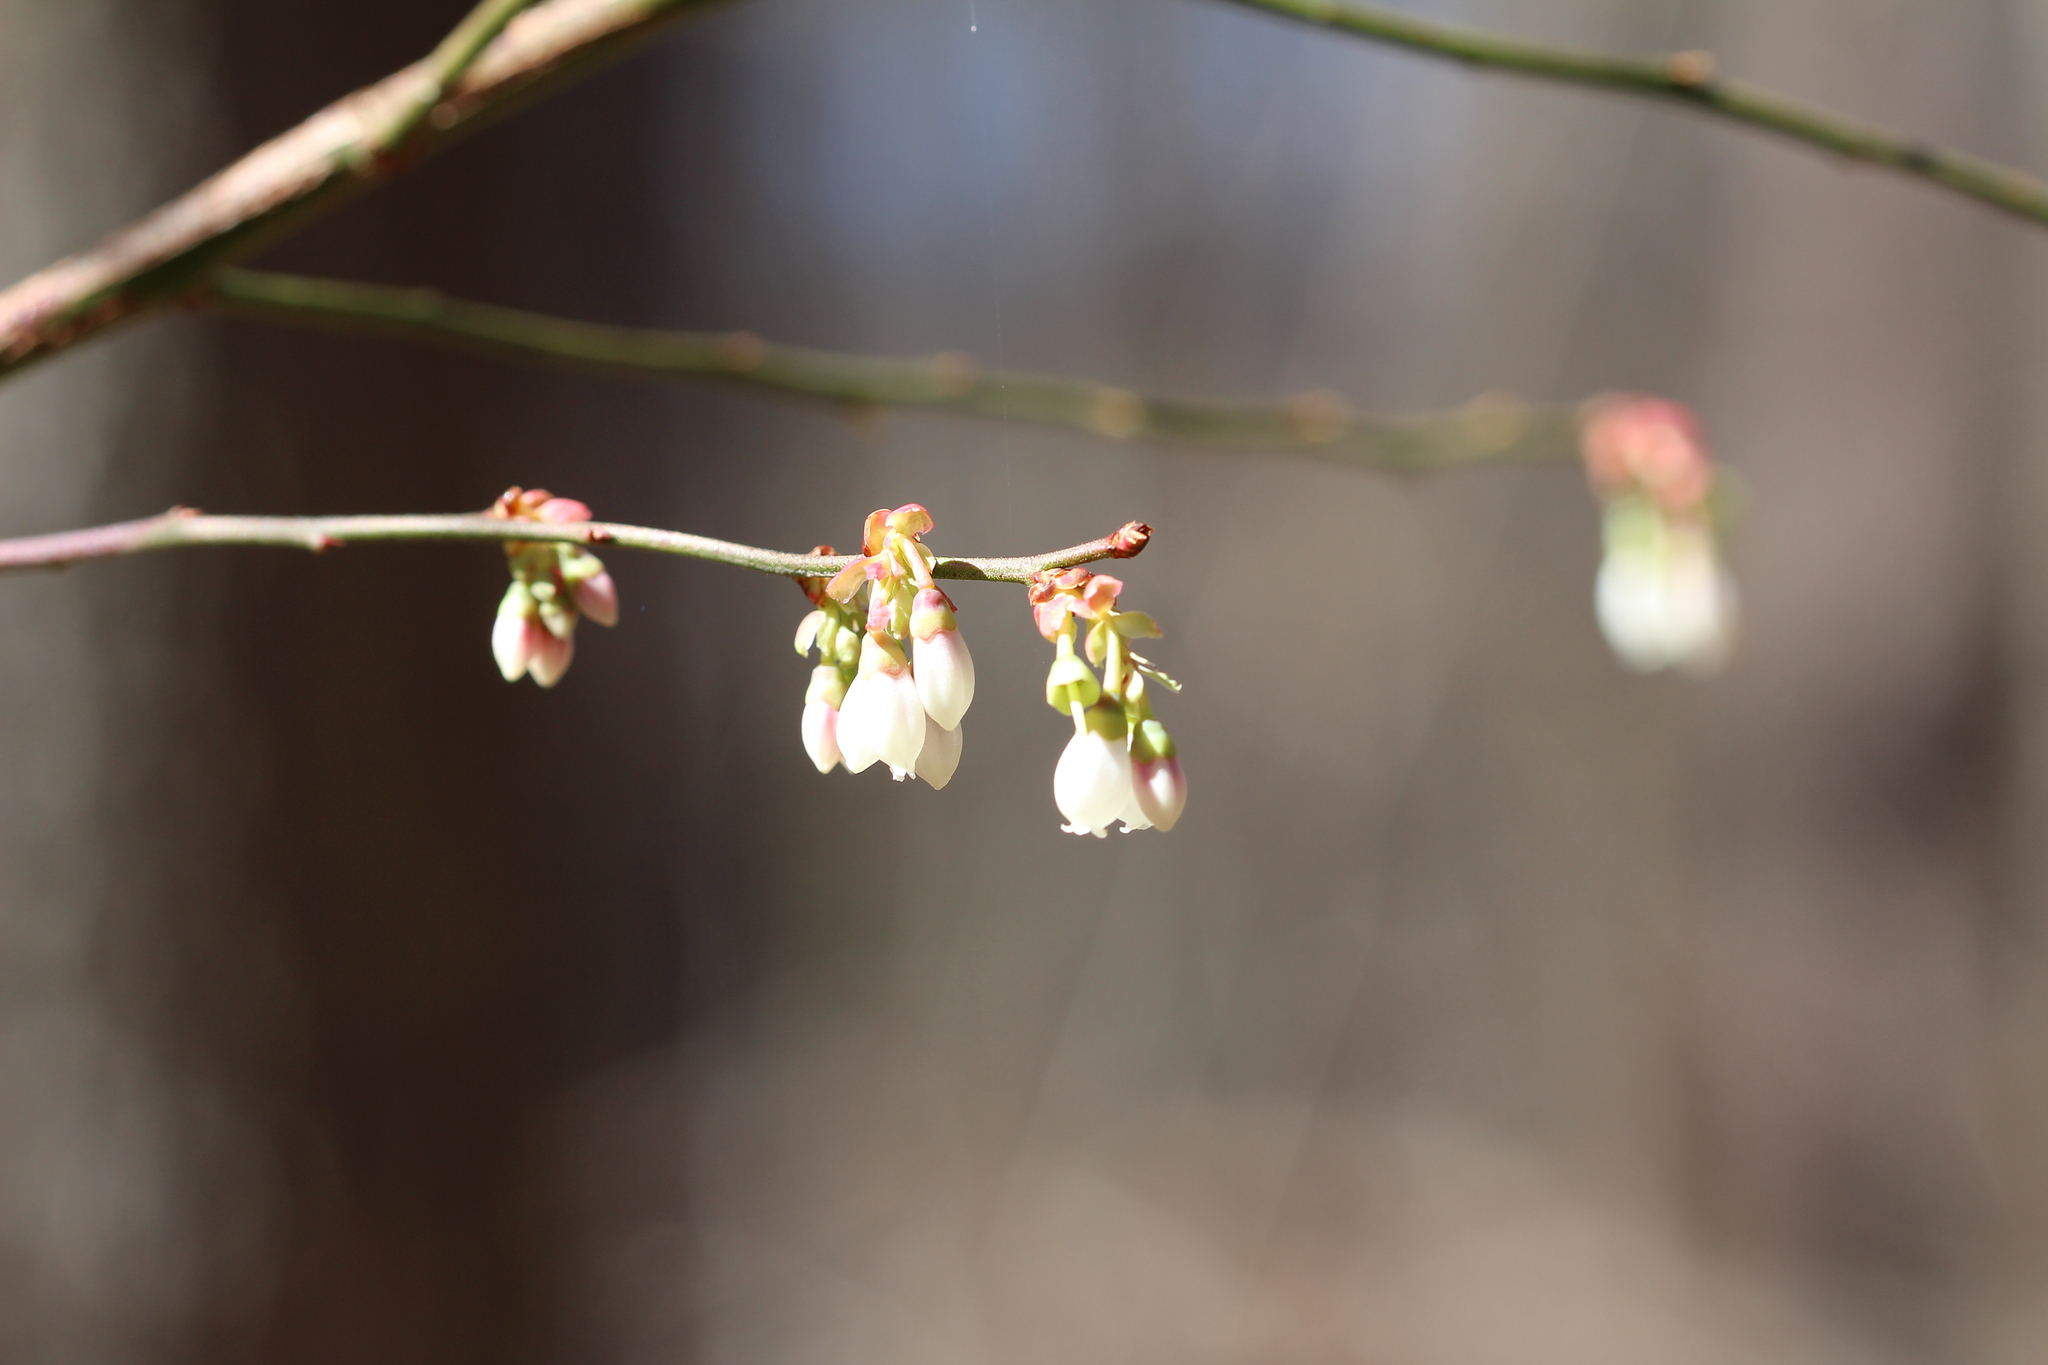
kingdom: Plantae
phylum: Tracheophyta
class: Magnoliopsida
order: Ericales
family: Ericaceae
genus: Vaccinium
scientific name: Vaccinium corymbosum
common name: Blueberry
